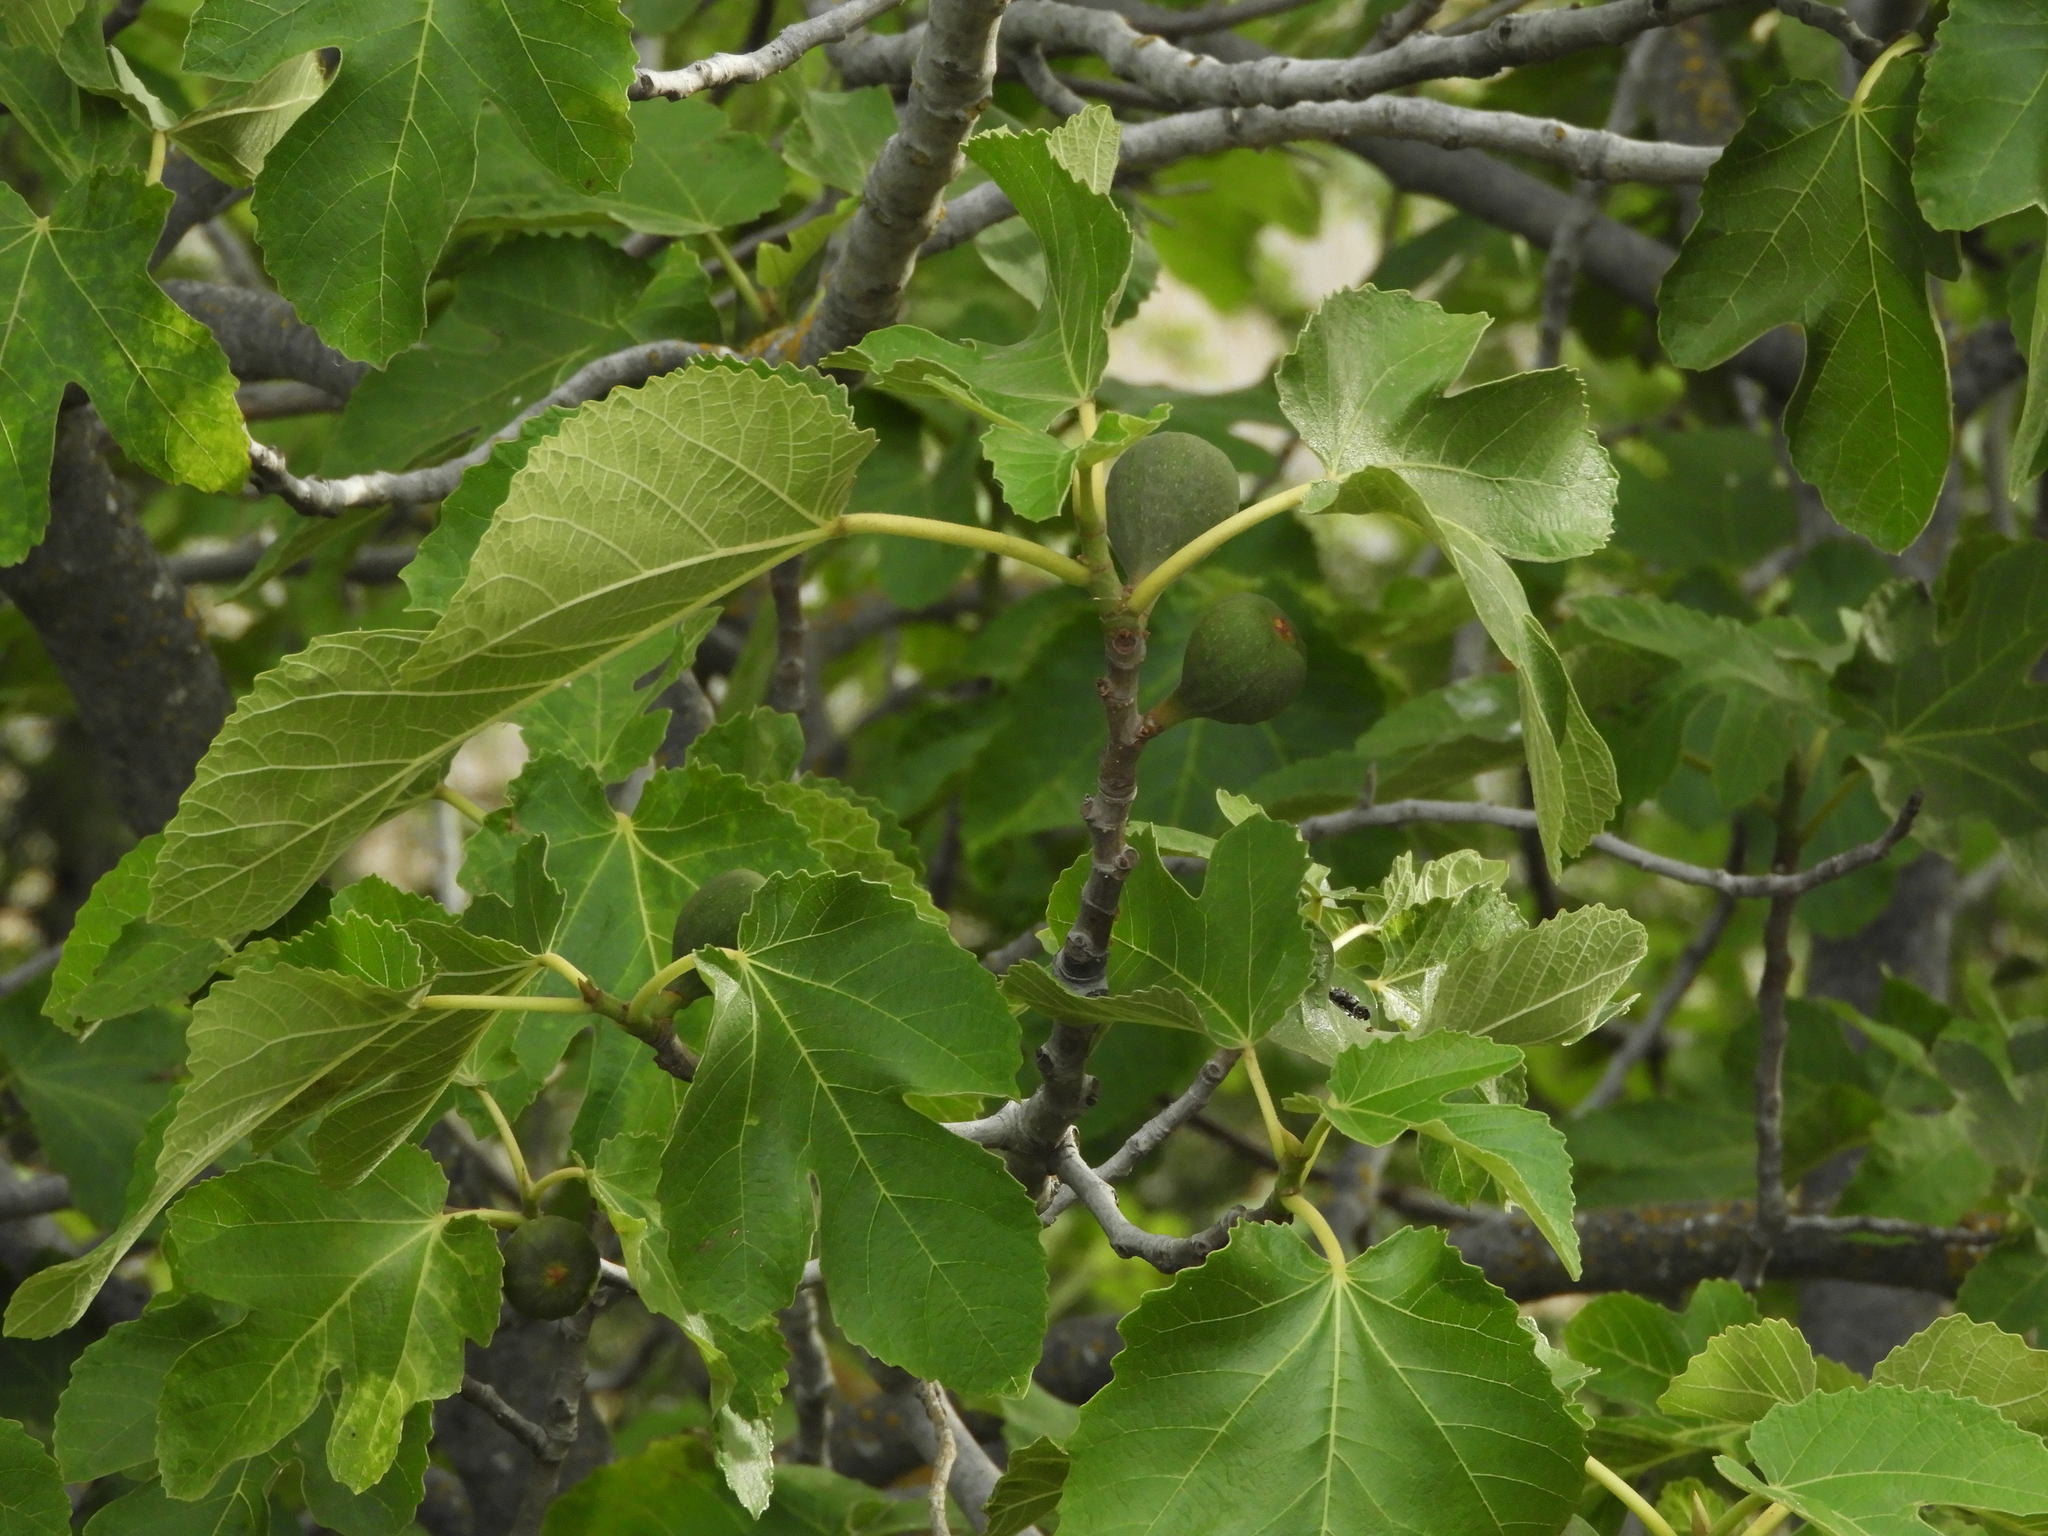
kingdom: Plantae
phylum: Tracheophyta
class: Magnoliopsida
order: Rosales
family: Moraceae
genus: Ficus
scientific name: Ficus carica
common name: Fig
